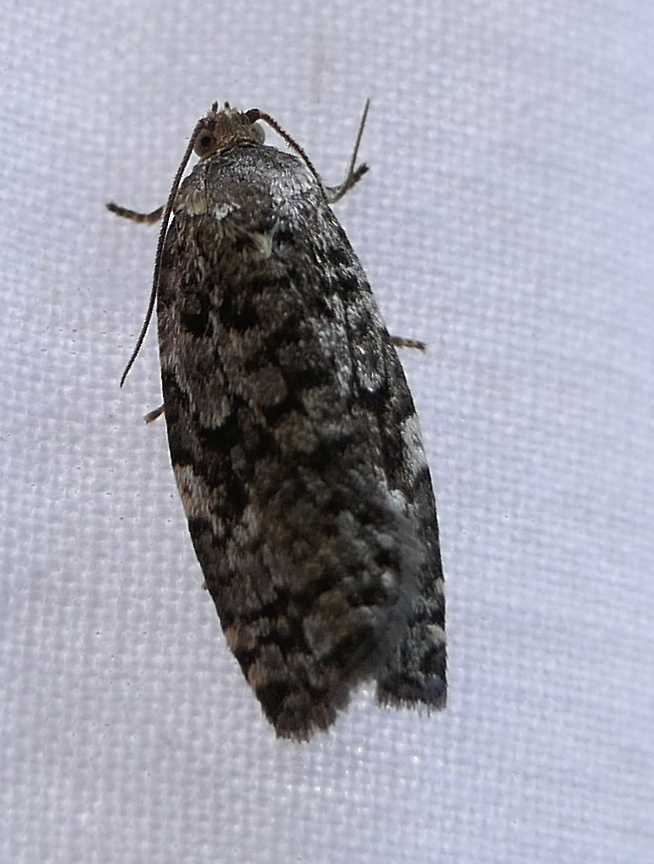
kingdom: Animalia
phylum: Arthropoda
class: Insecta
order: Lepidoptera
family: Tortricidae
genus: Choristoneura
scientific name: Choristoneura fumiferana
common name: Spruce budworm
